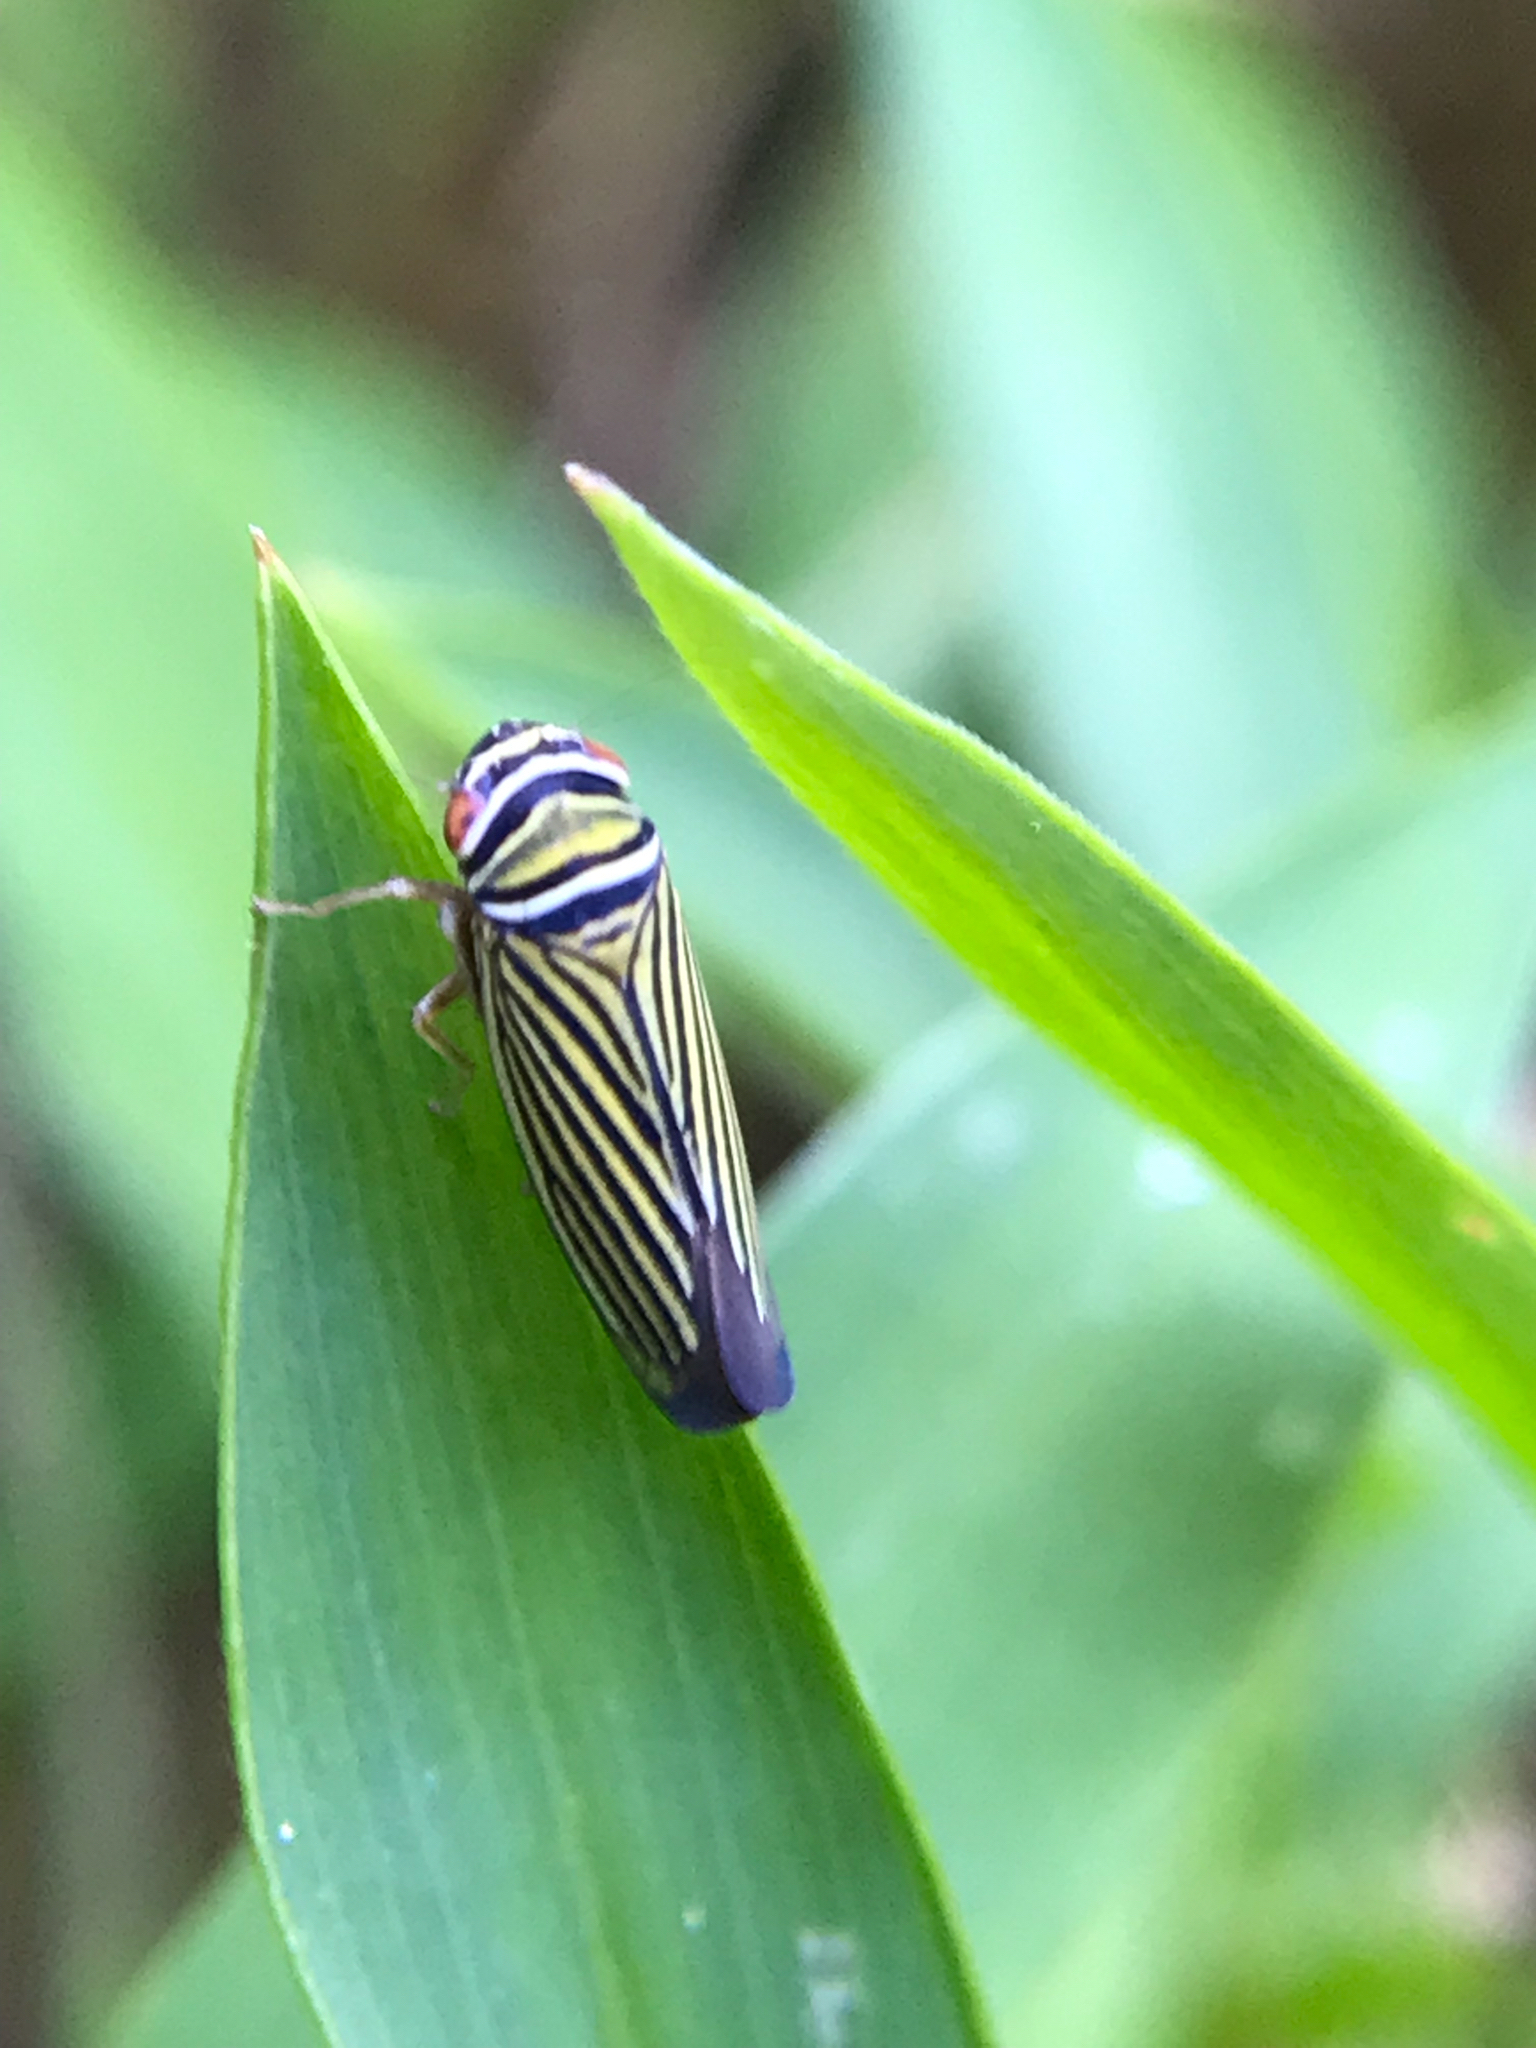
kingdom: Animalia
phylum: Arthropoda
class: Insecta
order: Hemiptera
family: Cicadellidae
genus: Tylozygus
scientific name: Tylozygus bifidus
